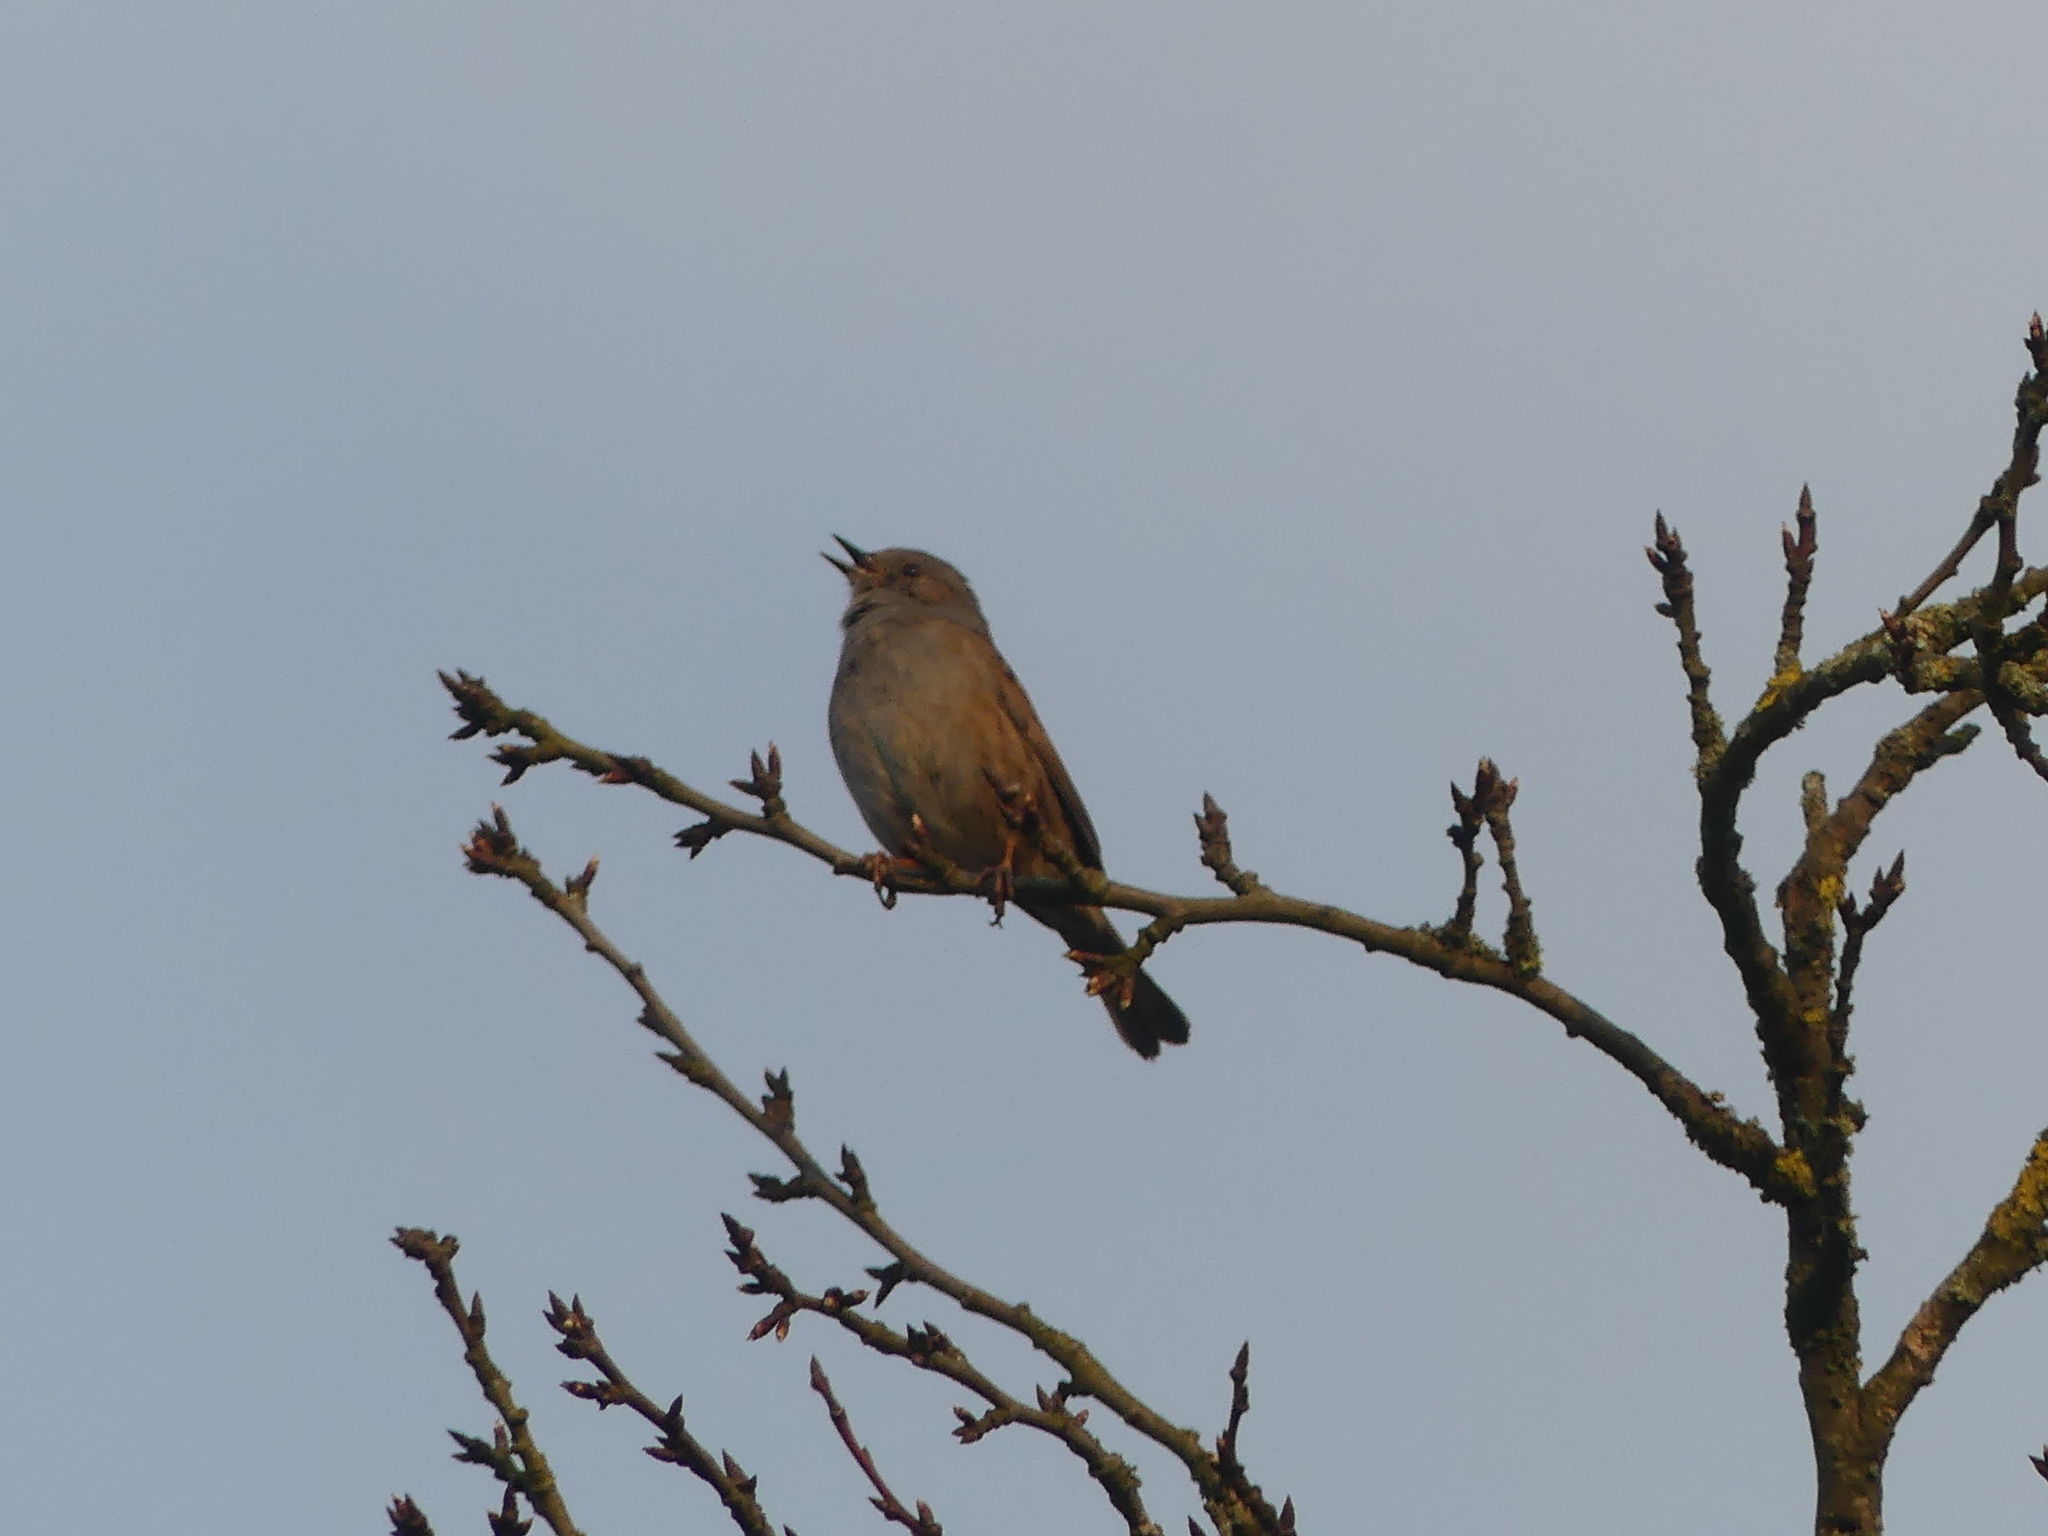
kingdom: Animalia
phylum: Chordata
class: Aves
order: Passeriformes
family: Prunellidae
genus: Prunella
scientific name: Prunella modularis
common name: Dunnock
